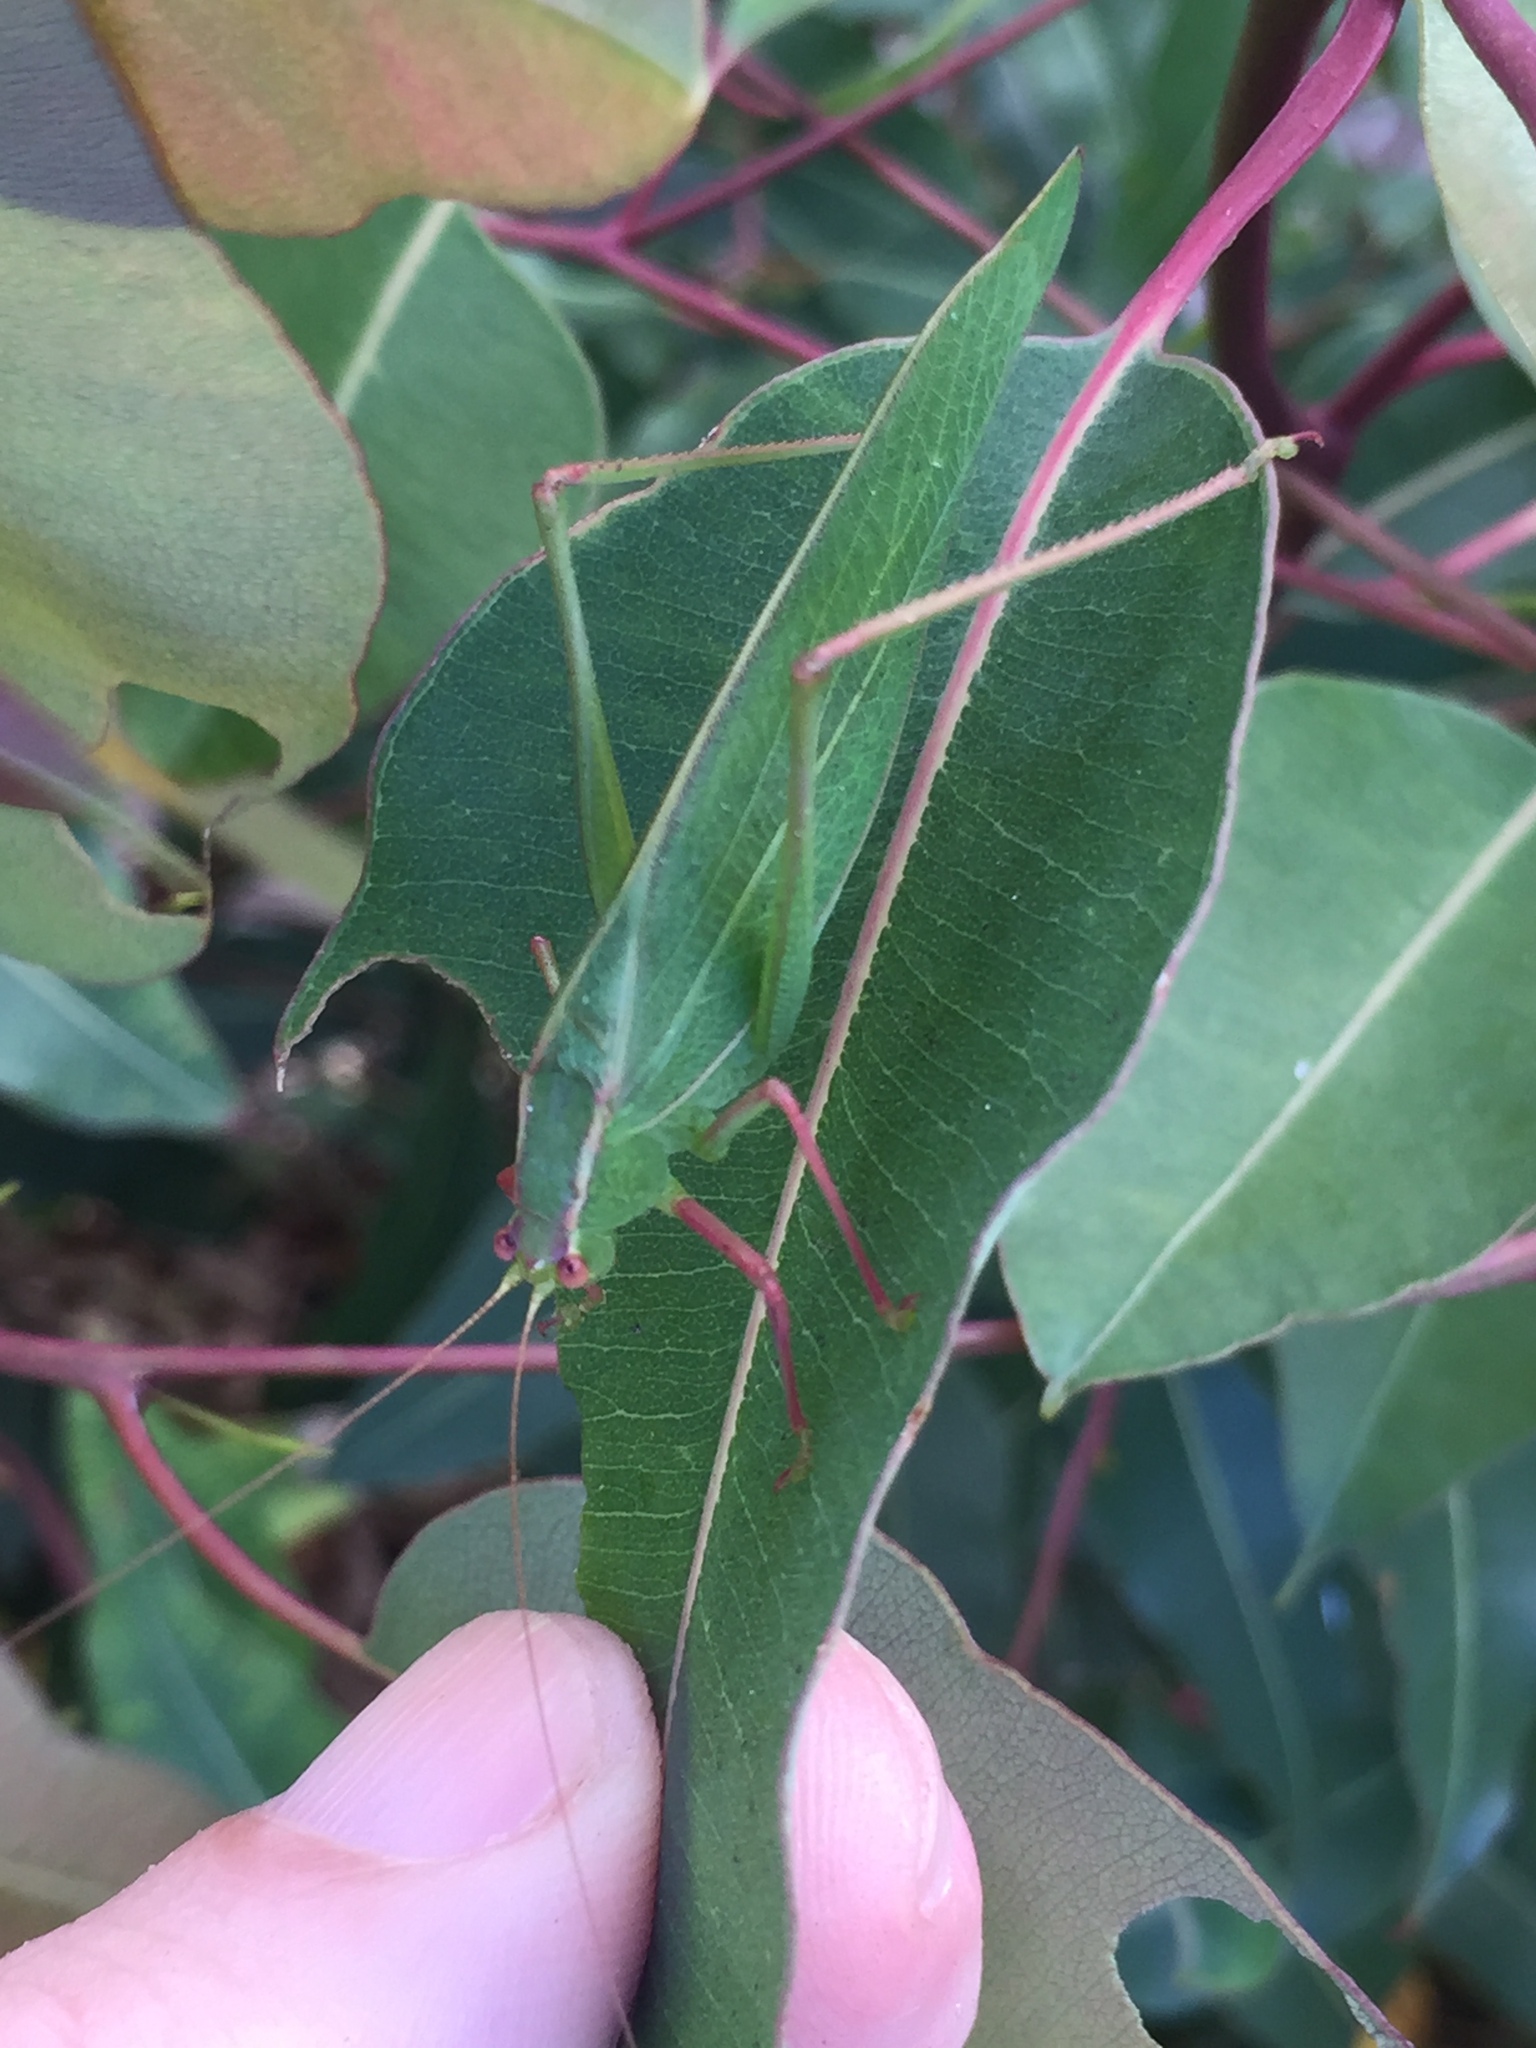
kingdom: Animalia
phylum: Arthropoda
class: Insecta
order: Orthoptera
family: Tettigoniidae
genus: Caedicia
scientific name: Caedicia simplex
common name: Common garden katydid
